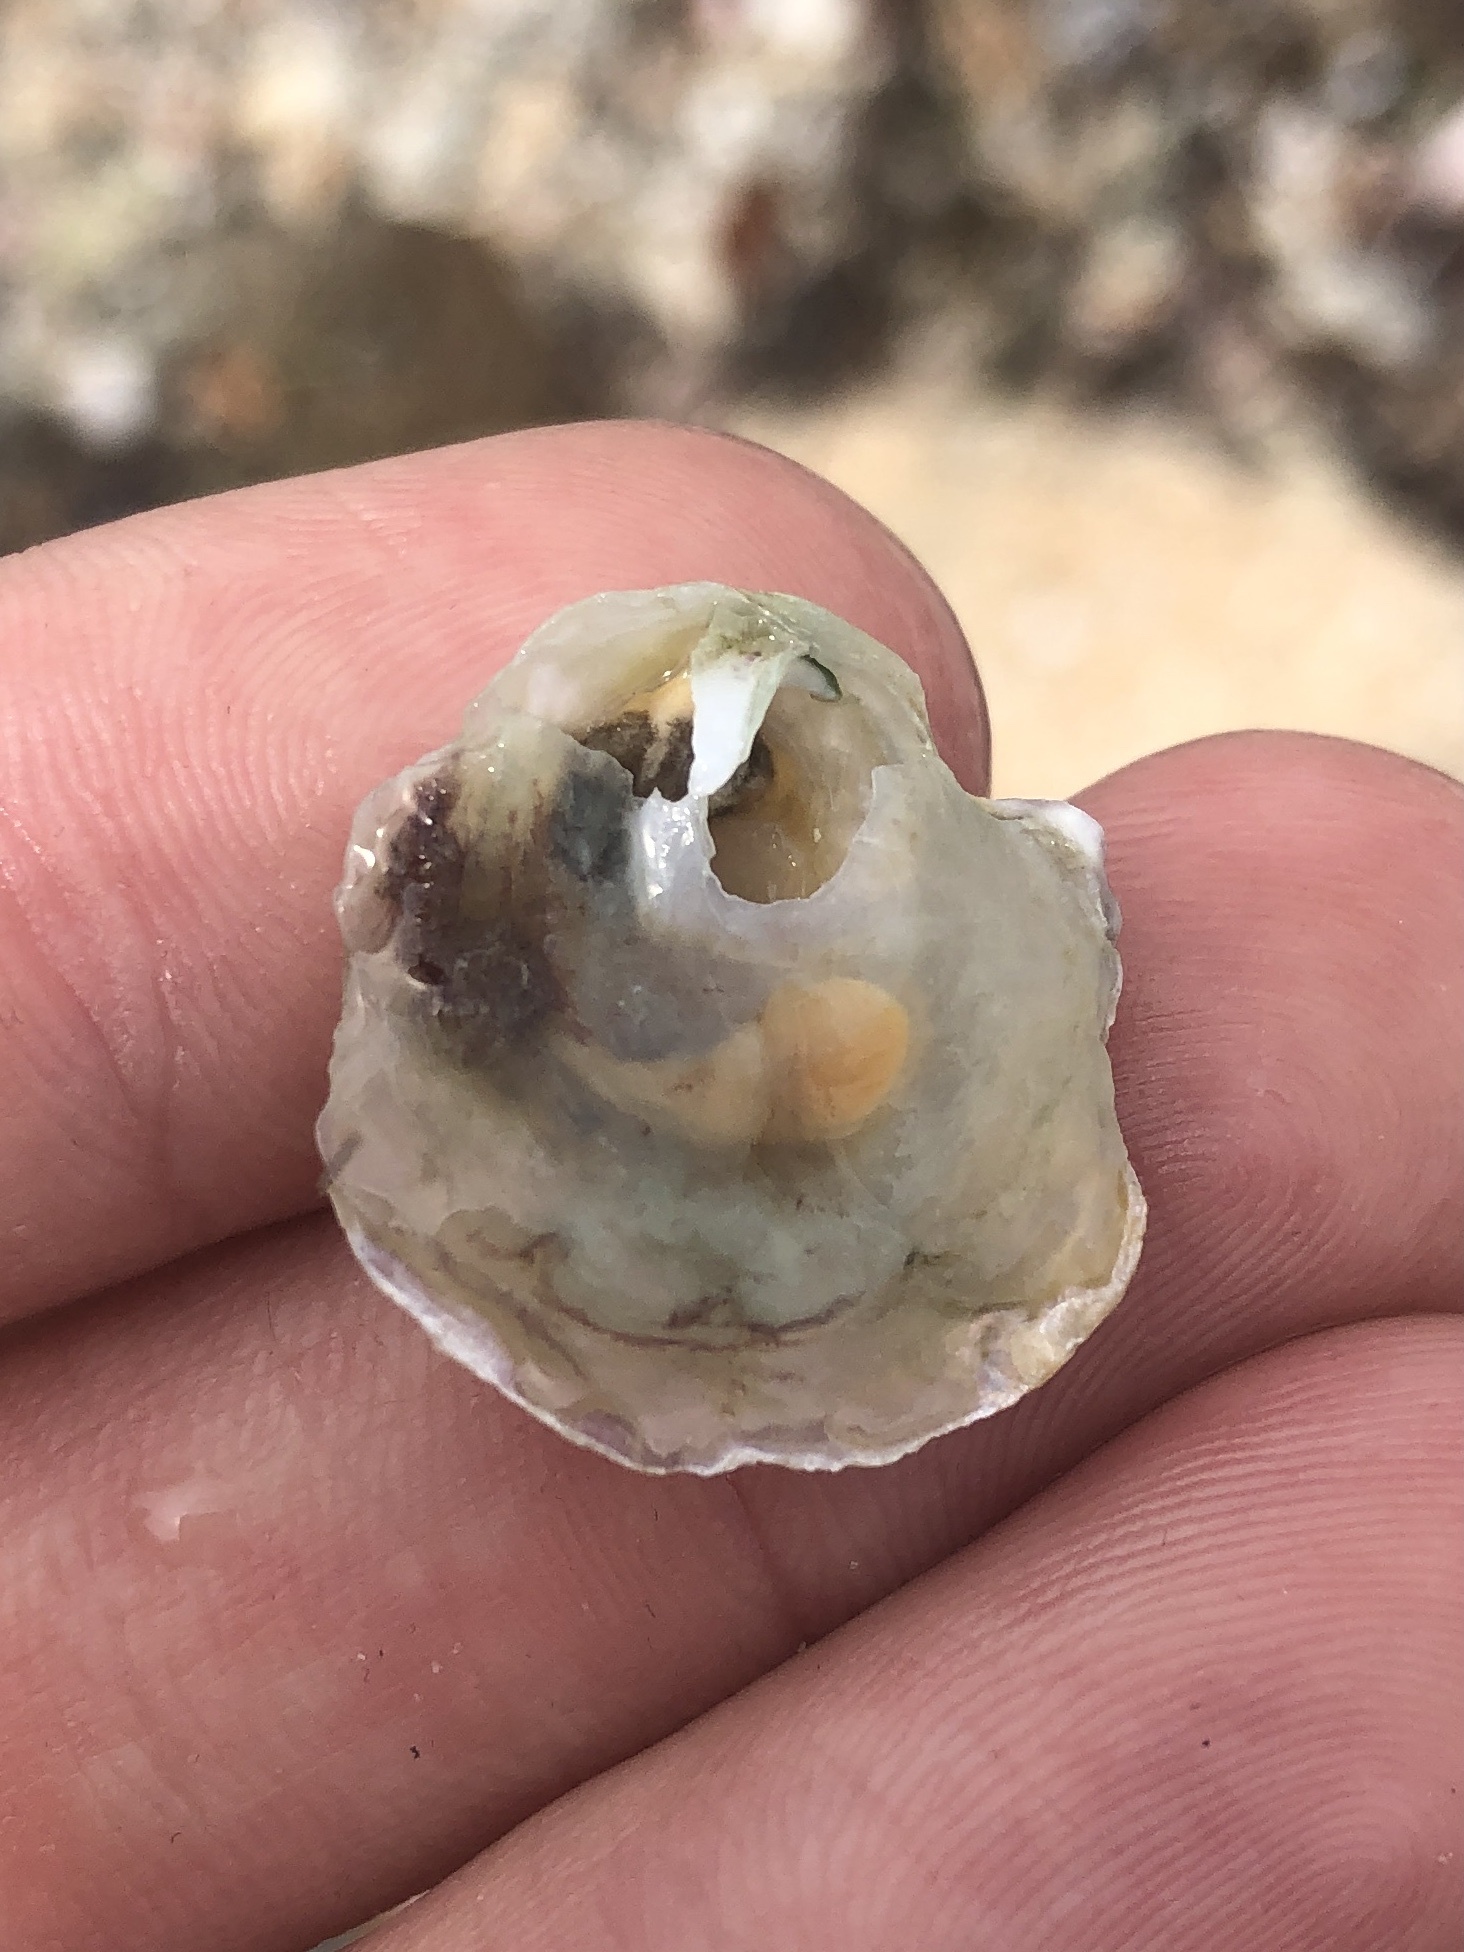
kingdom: Animalia
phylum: Mollusca
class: Bivalvia
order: Pectinida
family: Anomiidae
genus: Anomia
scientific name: Anomia simplex
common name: Common jingle shell
